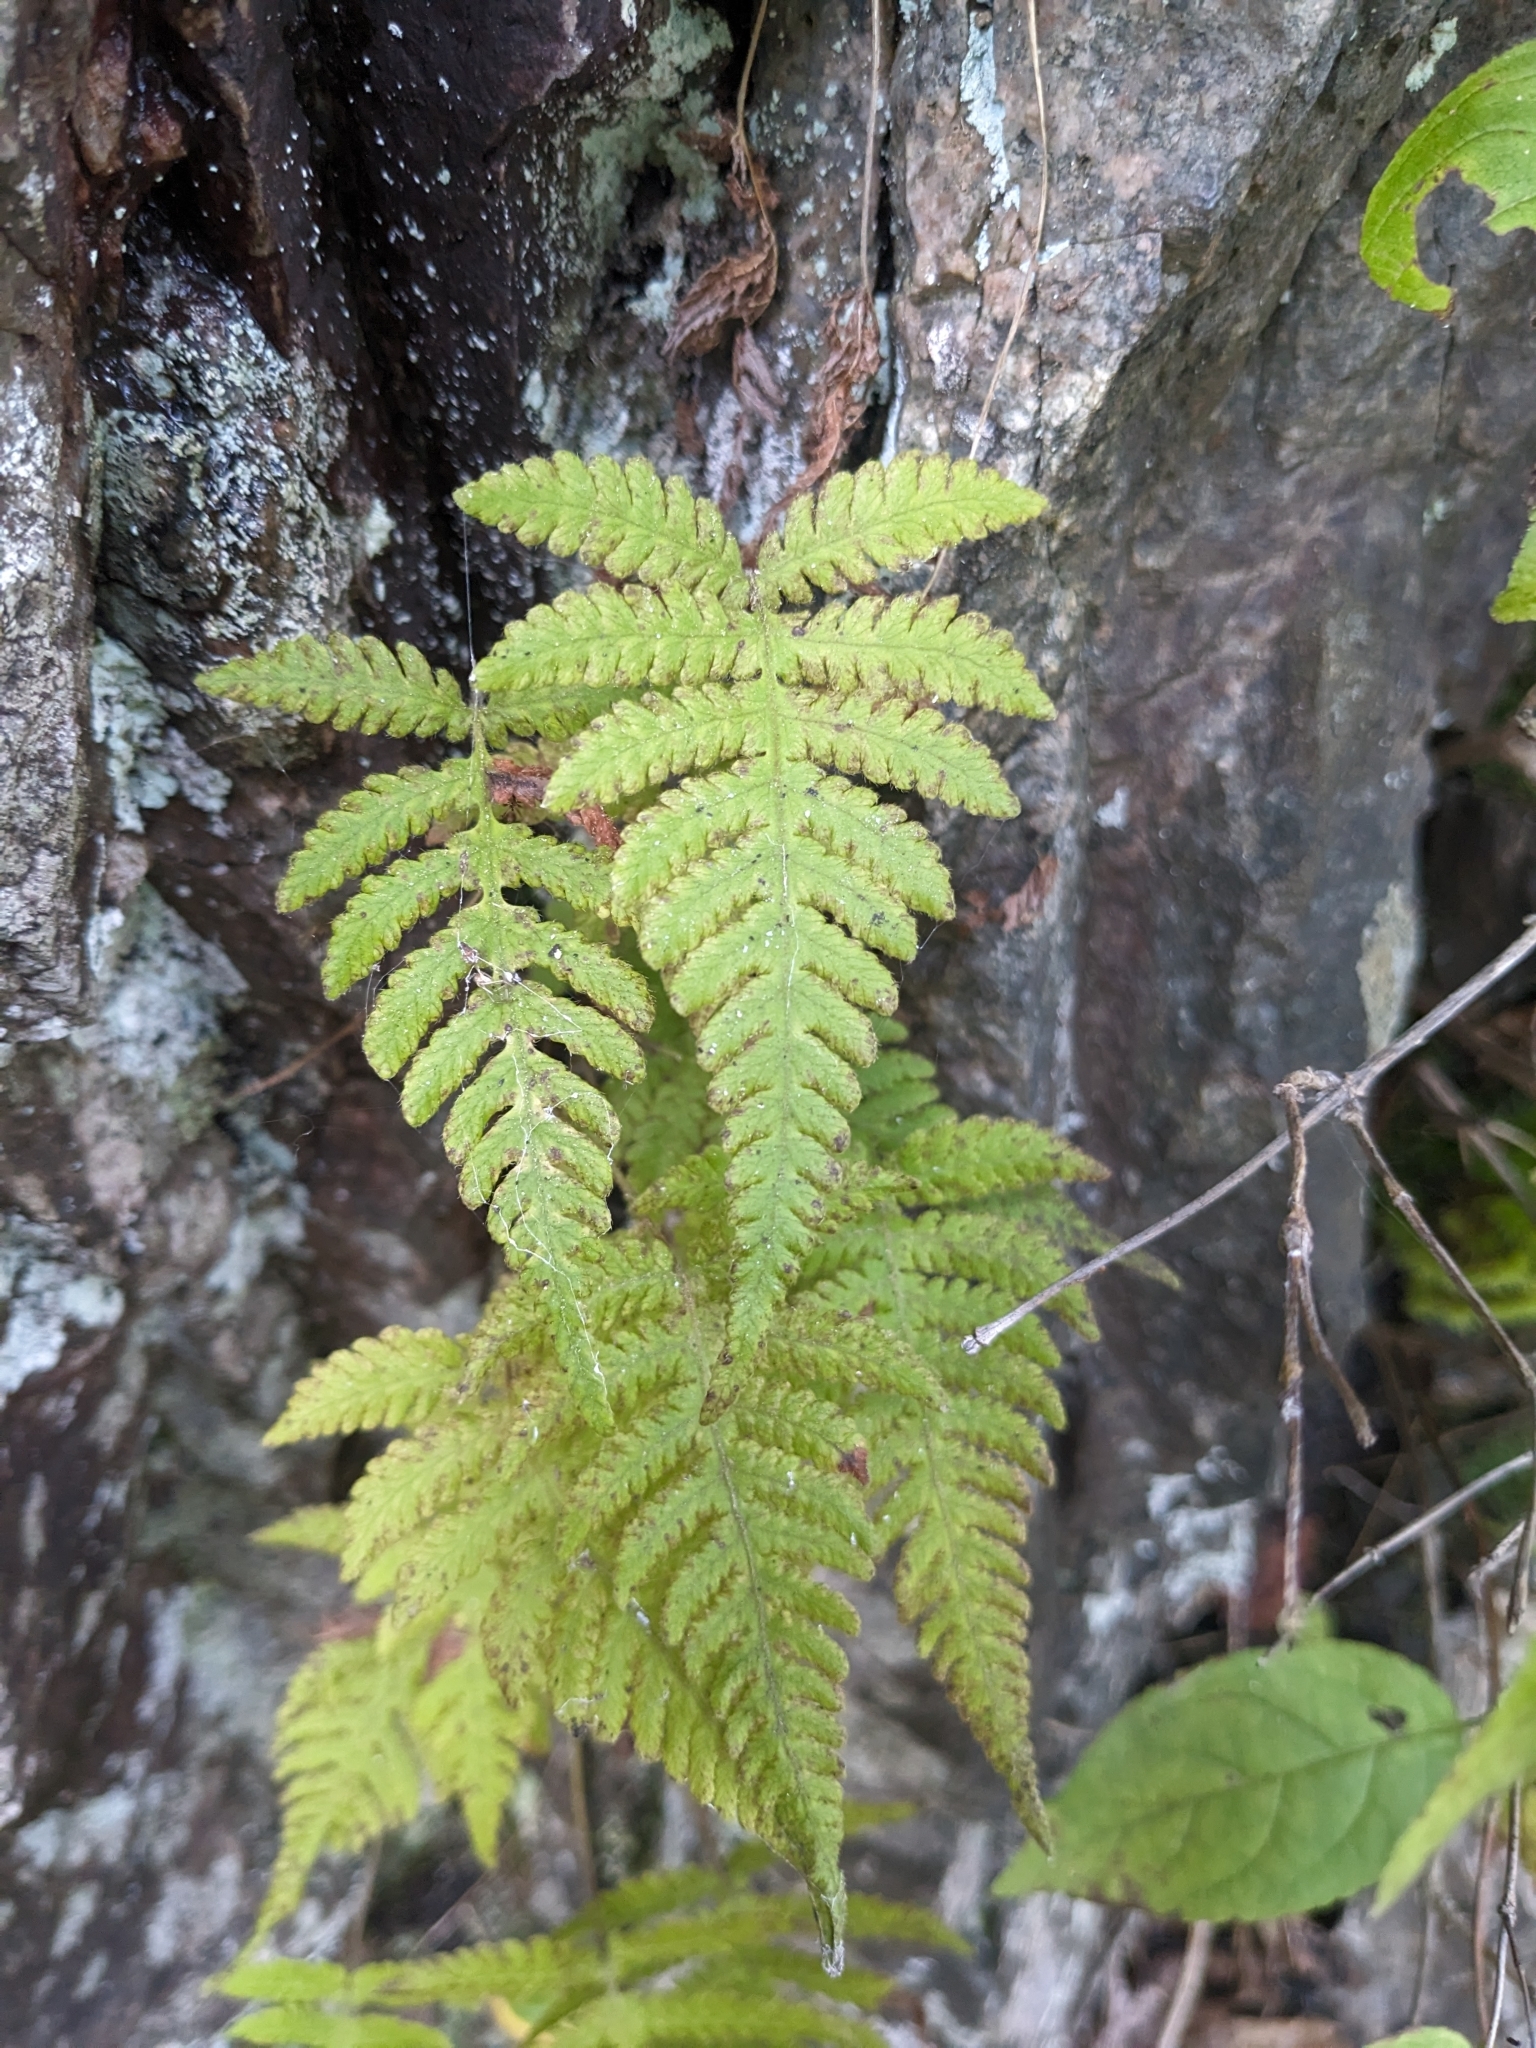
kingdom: Plantae
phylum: Tracheophyta
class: Polypodiopsida
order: Polypodiales
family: Thelypteridaceae
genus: Phegopteris
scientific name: Phegopteris connectilis
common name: Beech fern
